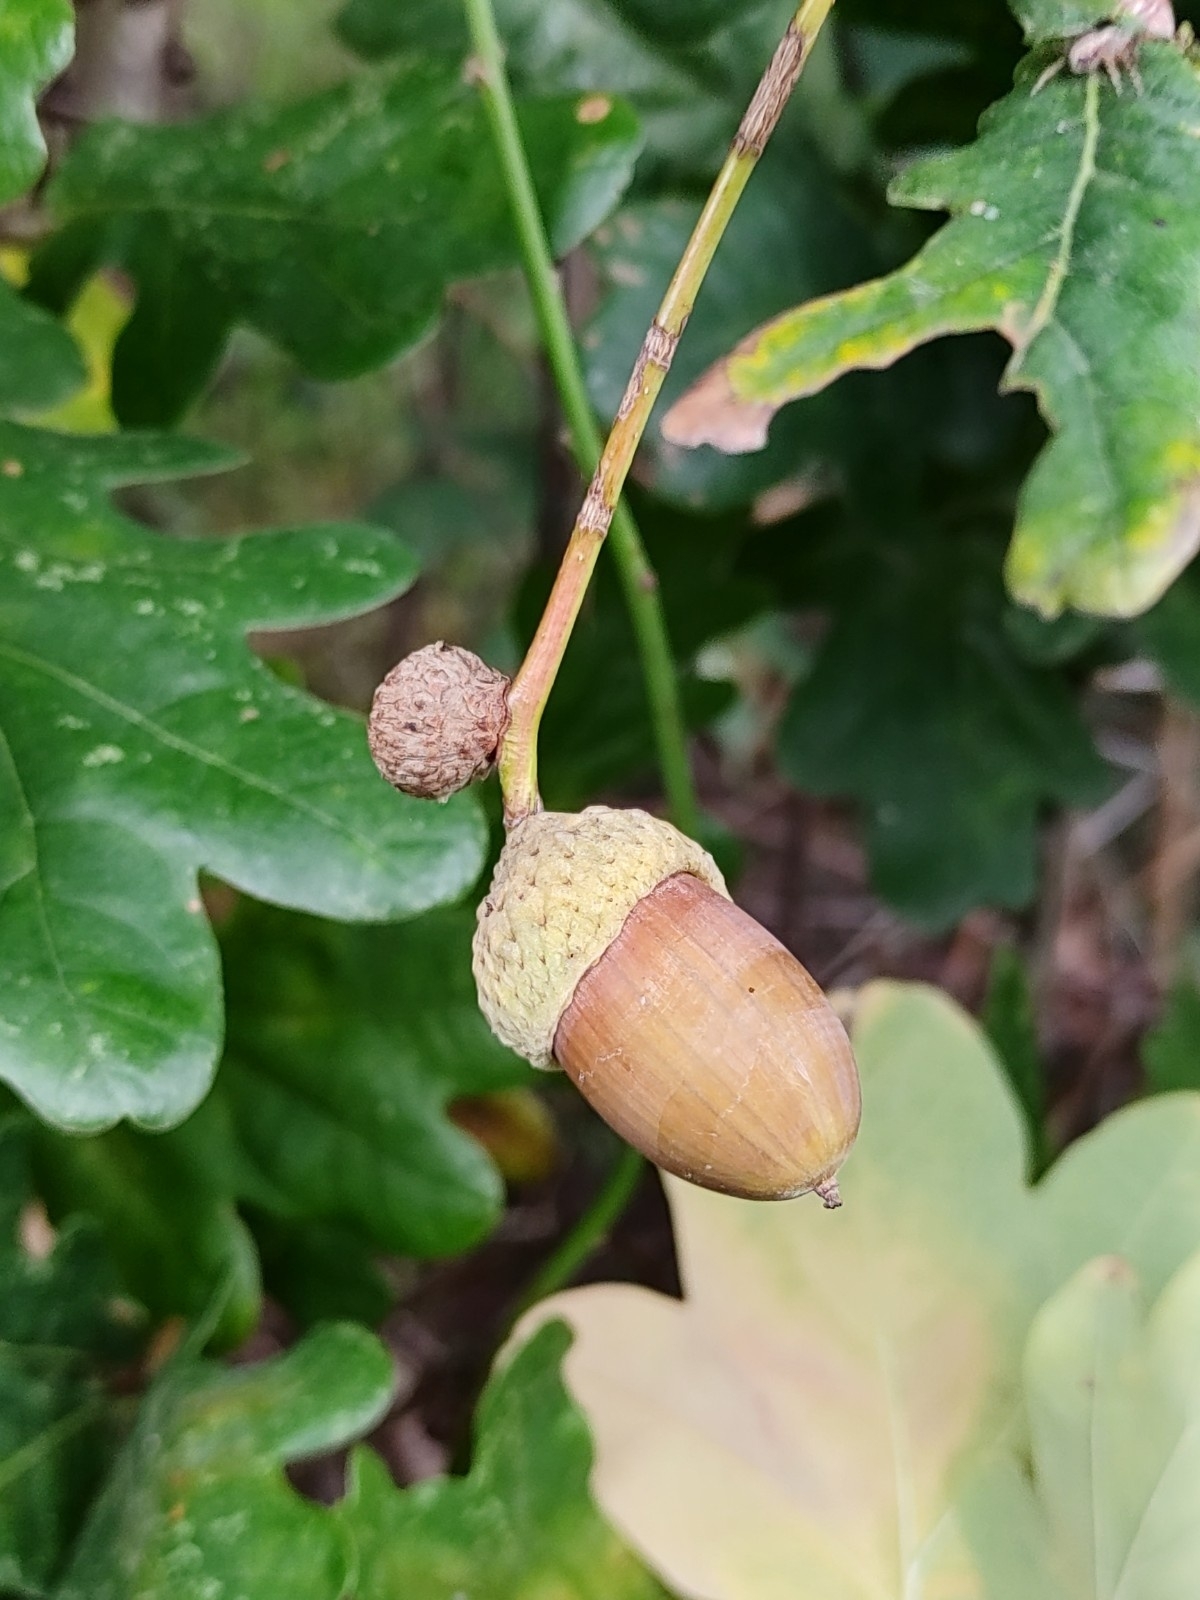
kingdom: Plantae
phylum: Tracheophyta
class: Magnoliopsida
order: Fagales
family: Fagaceae
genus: Quercus
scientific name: Quercus robur
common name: Pedunculate oak
